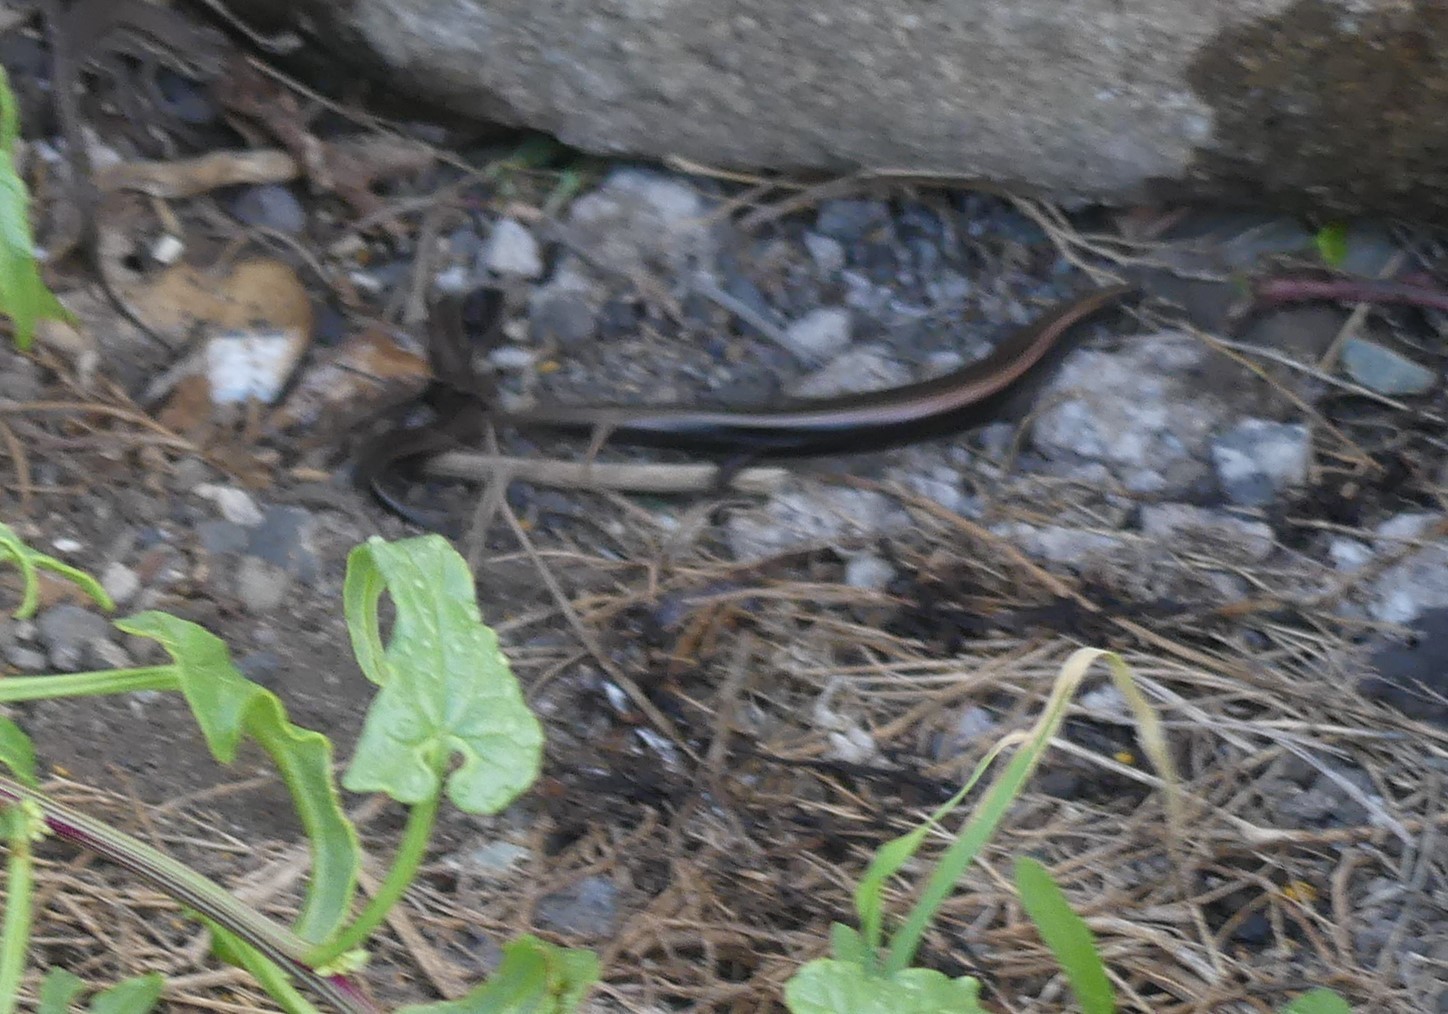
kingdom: Animalia
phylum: Chordata
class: Squamata
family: Scincidae
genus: Chalcides
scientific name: Chalcides viridanus
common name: Canaryan cylindrical skink
